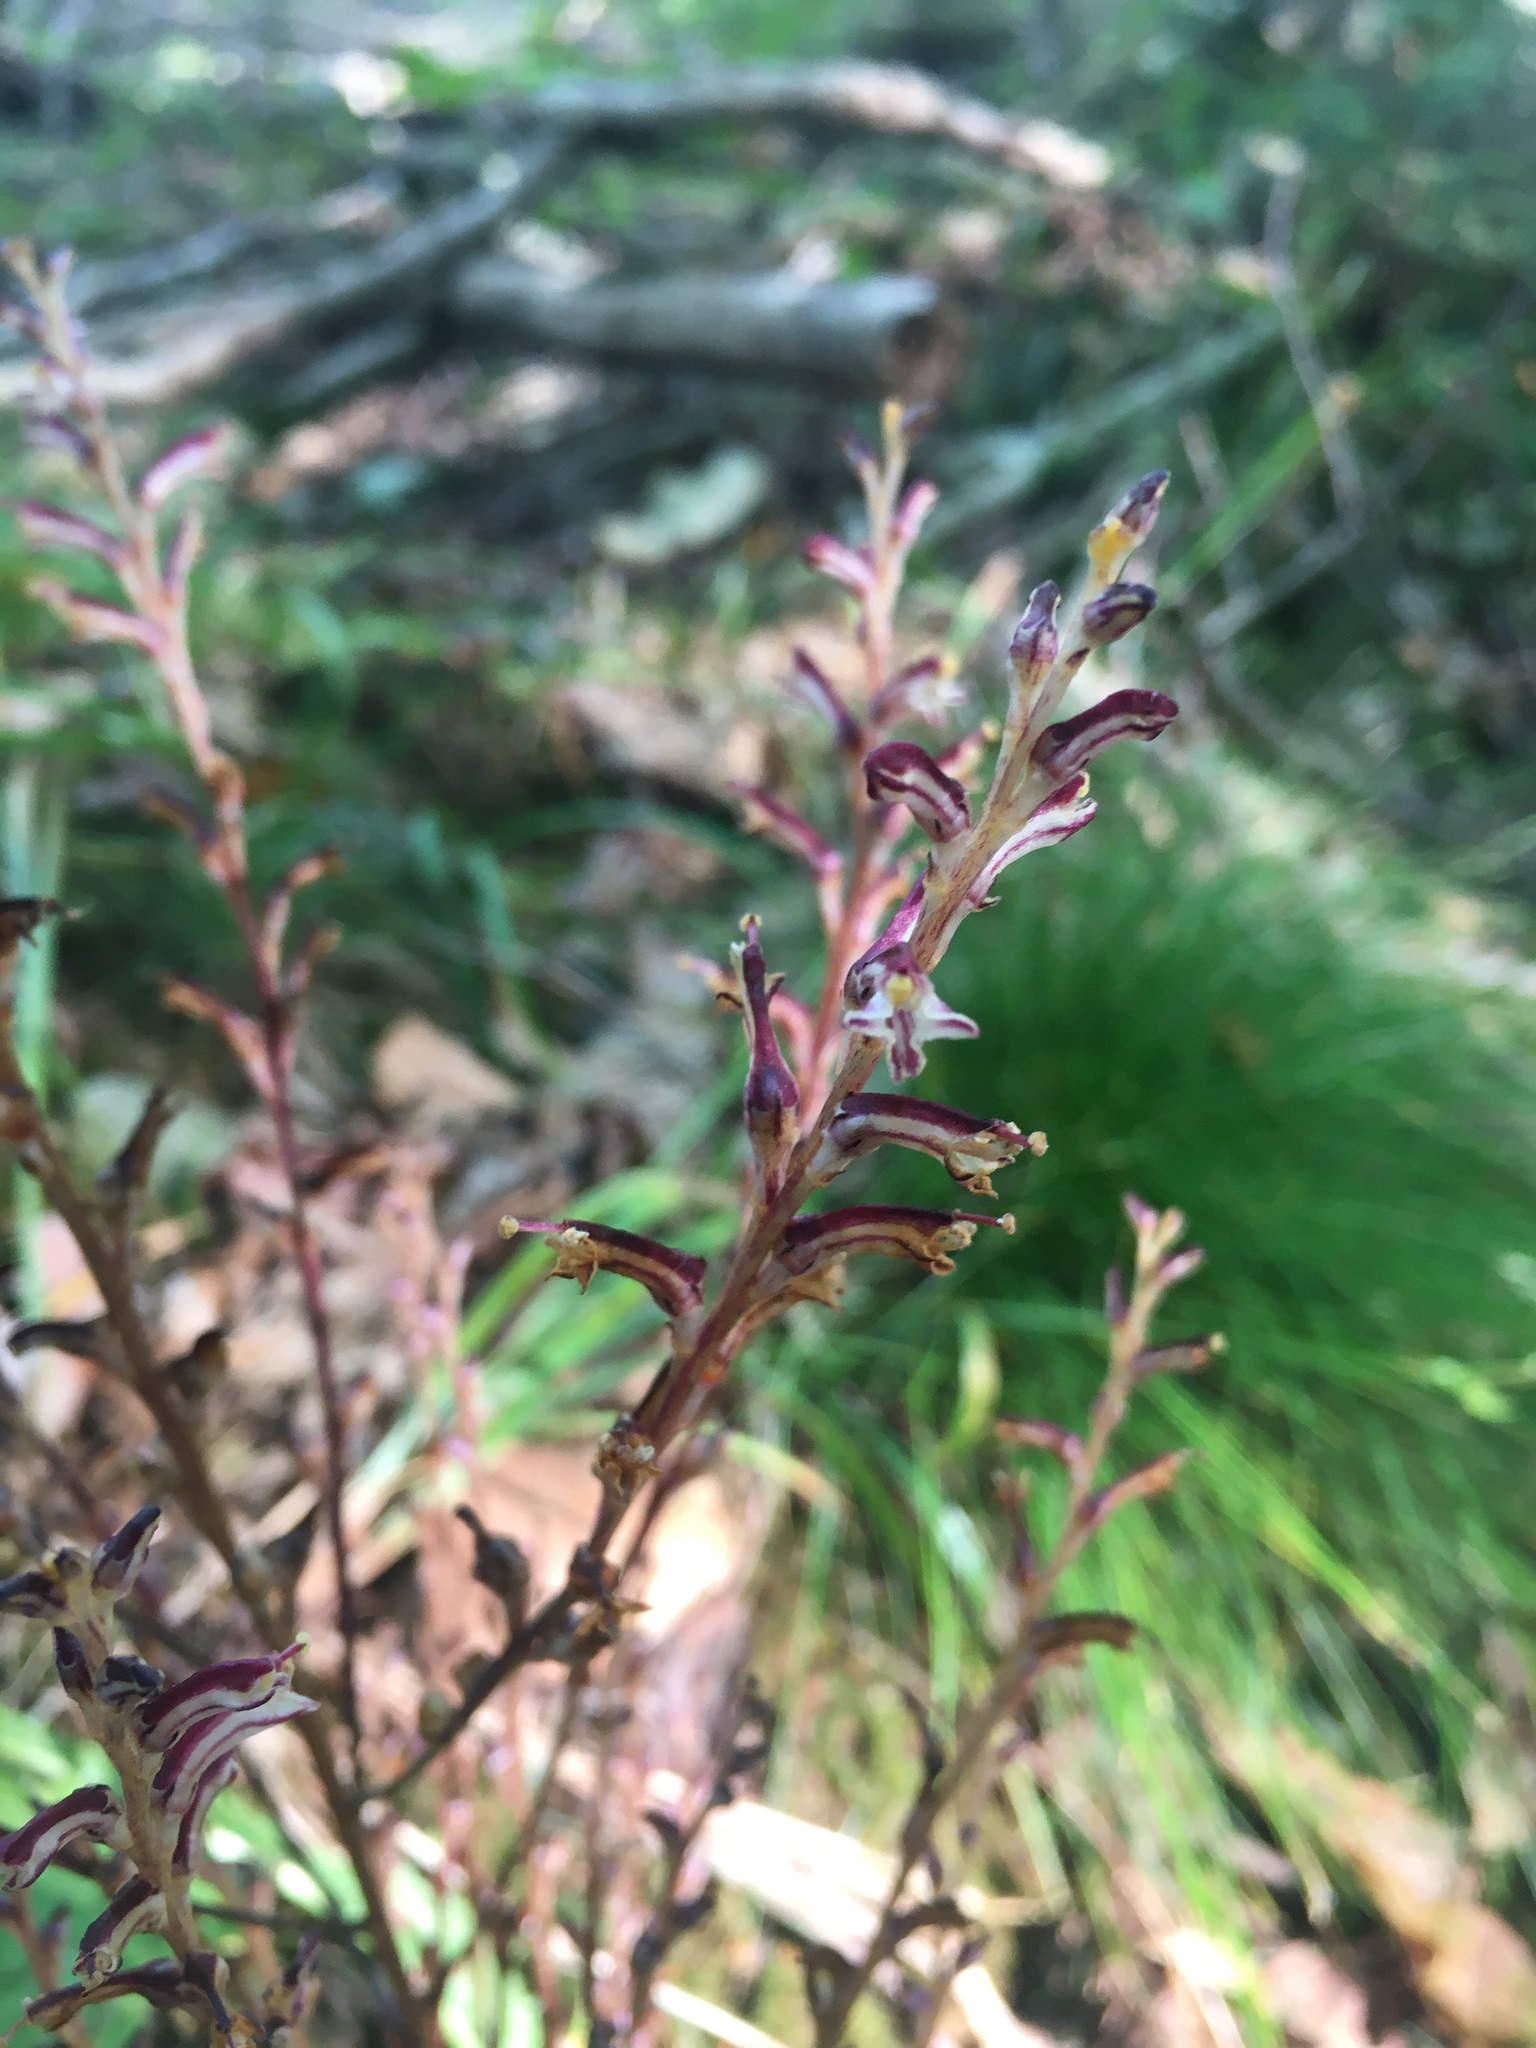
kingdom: Plantae
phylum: Tracheophyta
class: Magnoliopsida
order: Lamiales
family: Orobanchaceae
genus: Epifagus
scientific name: Epifagus virginiana
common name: Beechdrops
